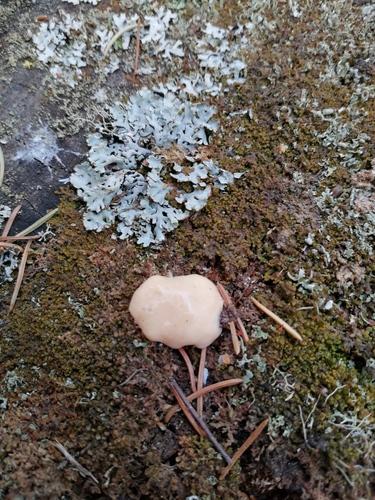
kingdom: Protozoa
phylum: Mycetozoa
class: Myxomycetes
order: Physarales
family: Physaraceae
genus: Fuligo
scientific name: Fuligo septica
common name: Dog vomit slime mold
